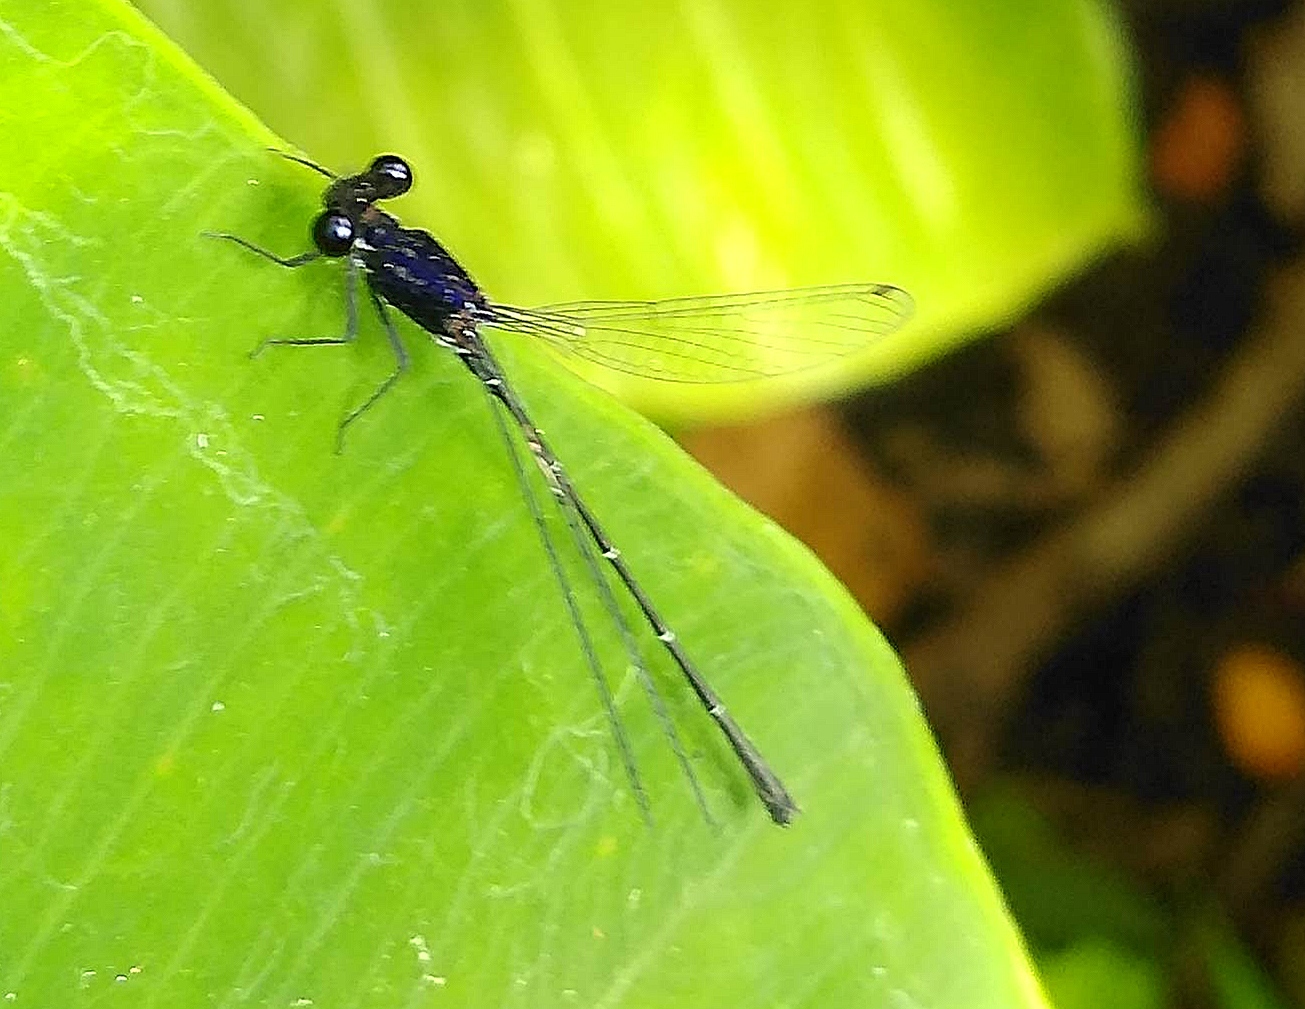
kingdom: Animalia
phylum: Arthropoda
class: Insecta
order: Odonata
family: Platycnemididae
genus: Onychargia
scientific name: Onychargia atrocyana
